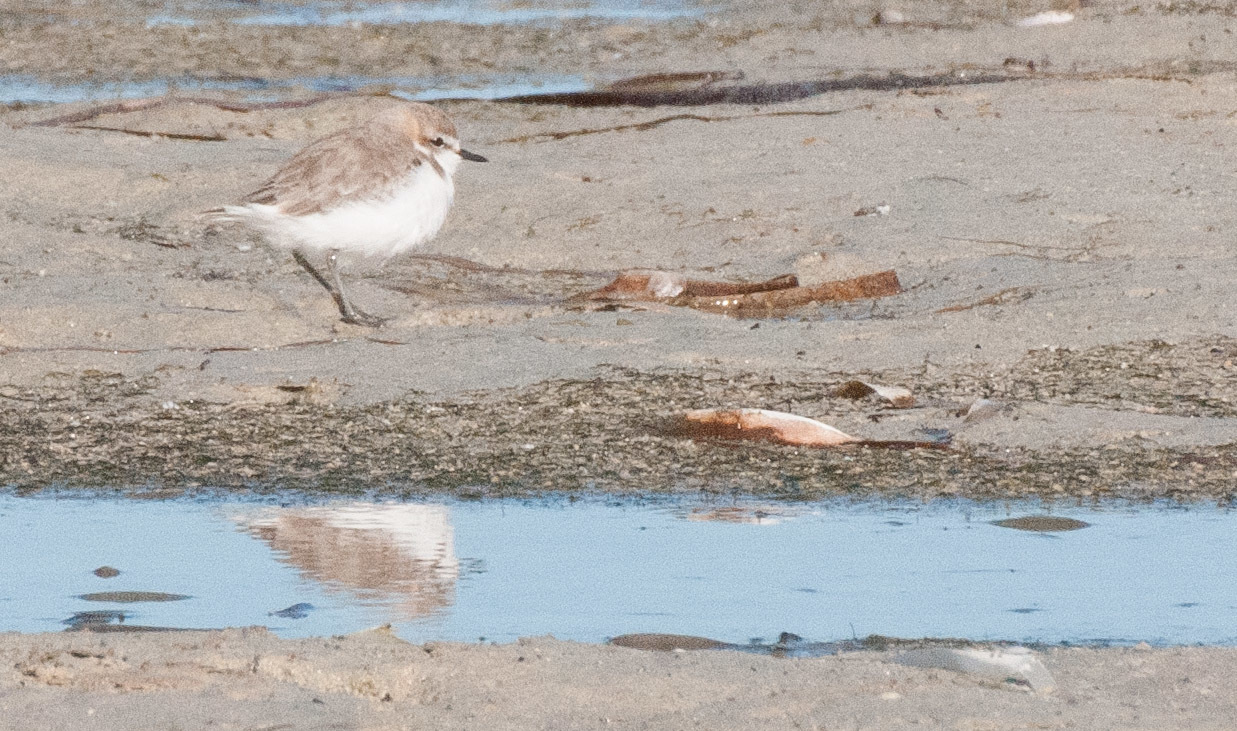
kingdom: Animalia
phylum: Chordata
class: Aves
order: Charadriiformes
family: Charadriidae
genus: Anarhynchus
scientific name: Anarhynchus
